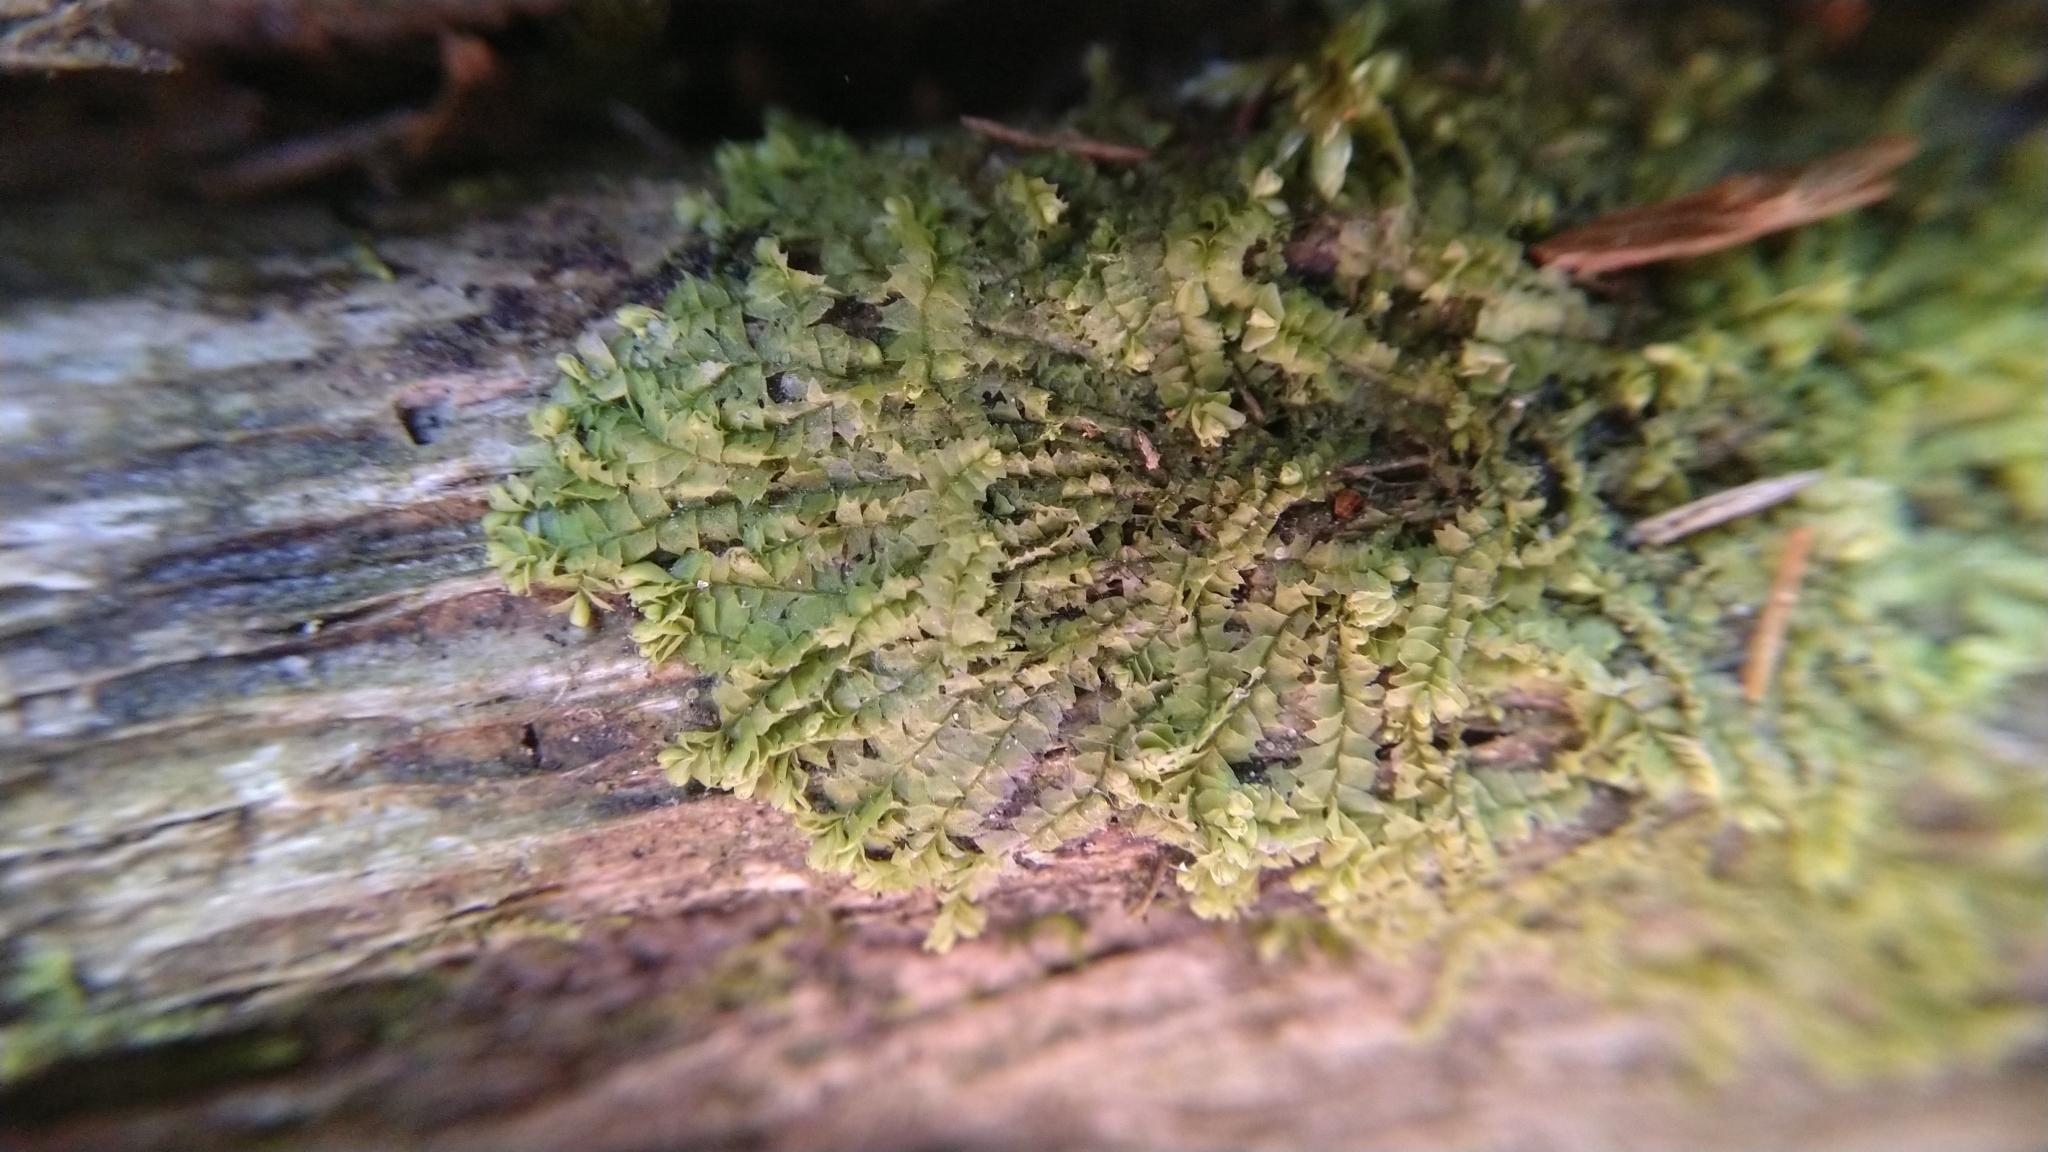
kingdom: Plantae
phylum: Marchantiophyta
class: Jungermanniopsida
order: Jungermanniales
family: Lophocoleaceae
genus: Lophocolea
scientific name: Lophocolea heterophylla
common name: Variable-leaved crestwort
